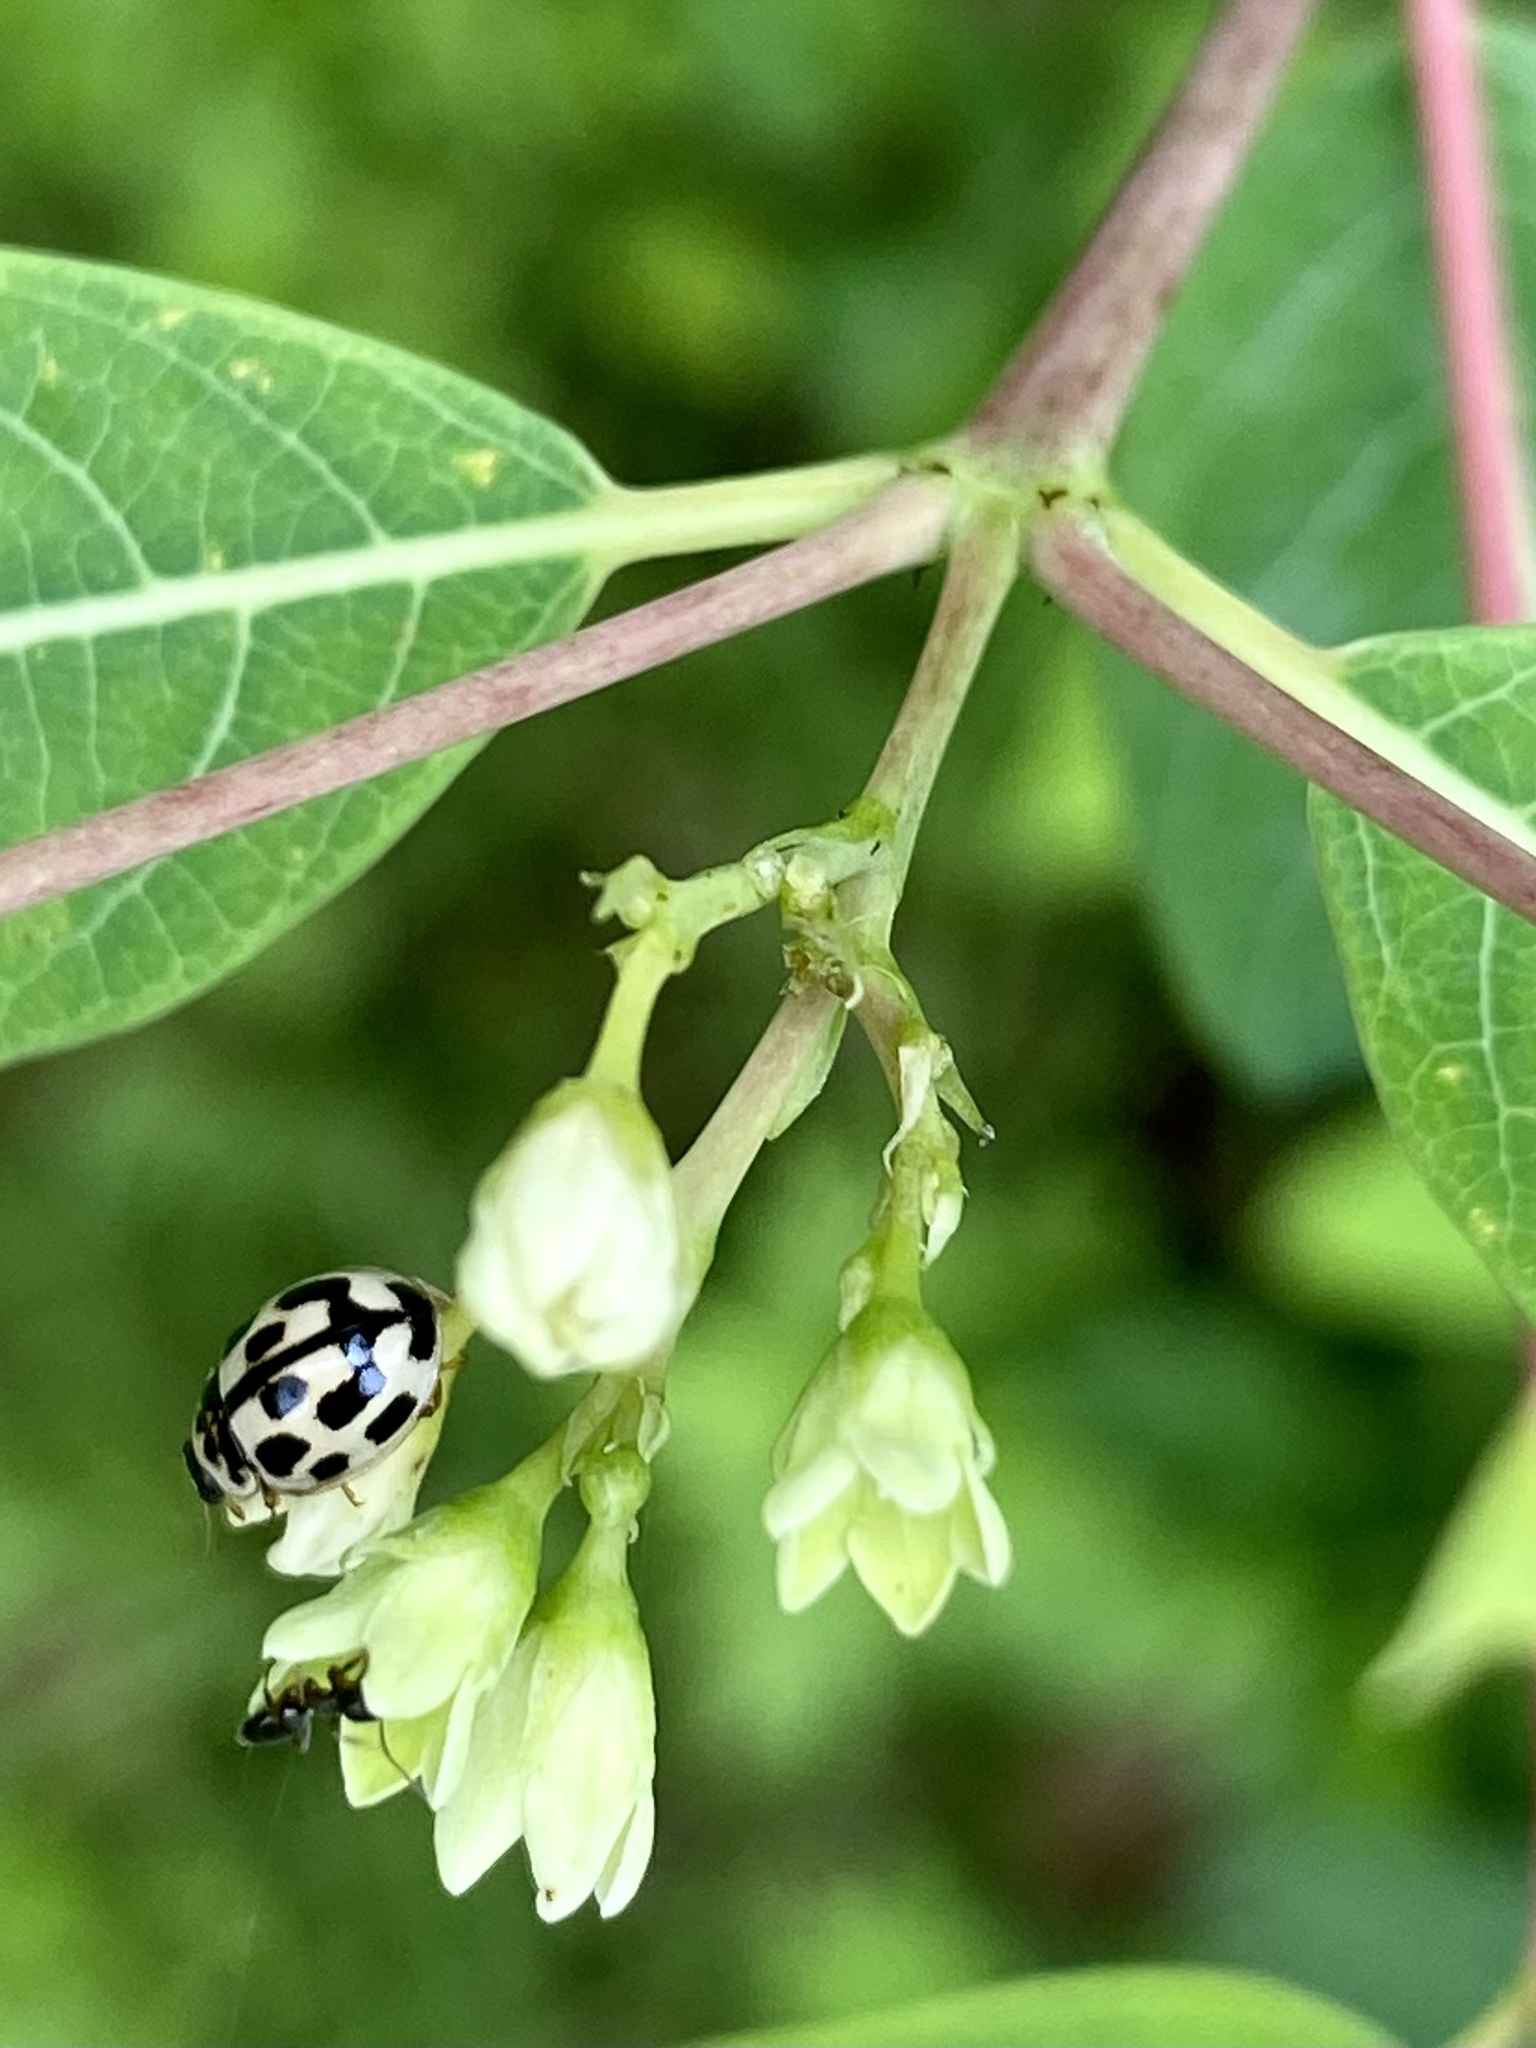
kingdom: Animalia
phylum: Arthropoda
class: Insecta
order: Coleoptera
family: Coccinellidae
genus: Propylaea
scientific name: Propylaea quatuordecimpunctata
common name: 14-spotted ladybird beetle
